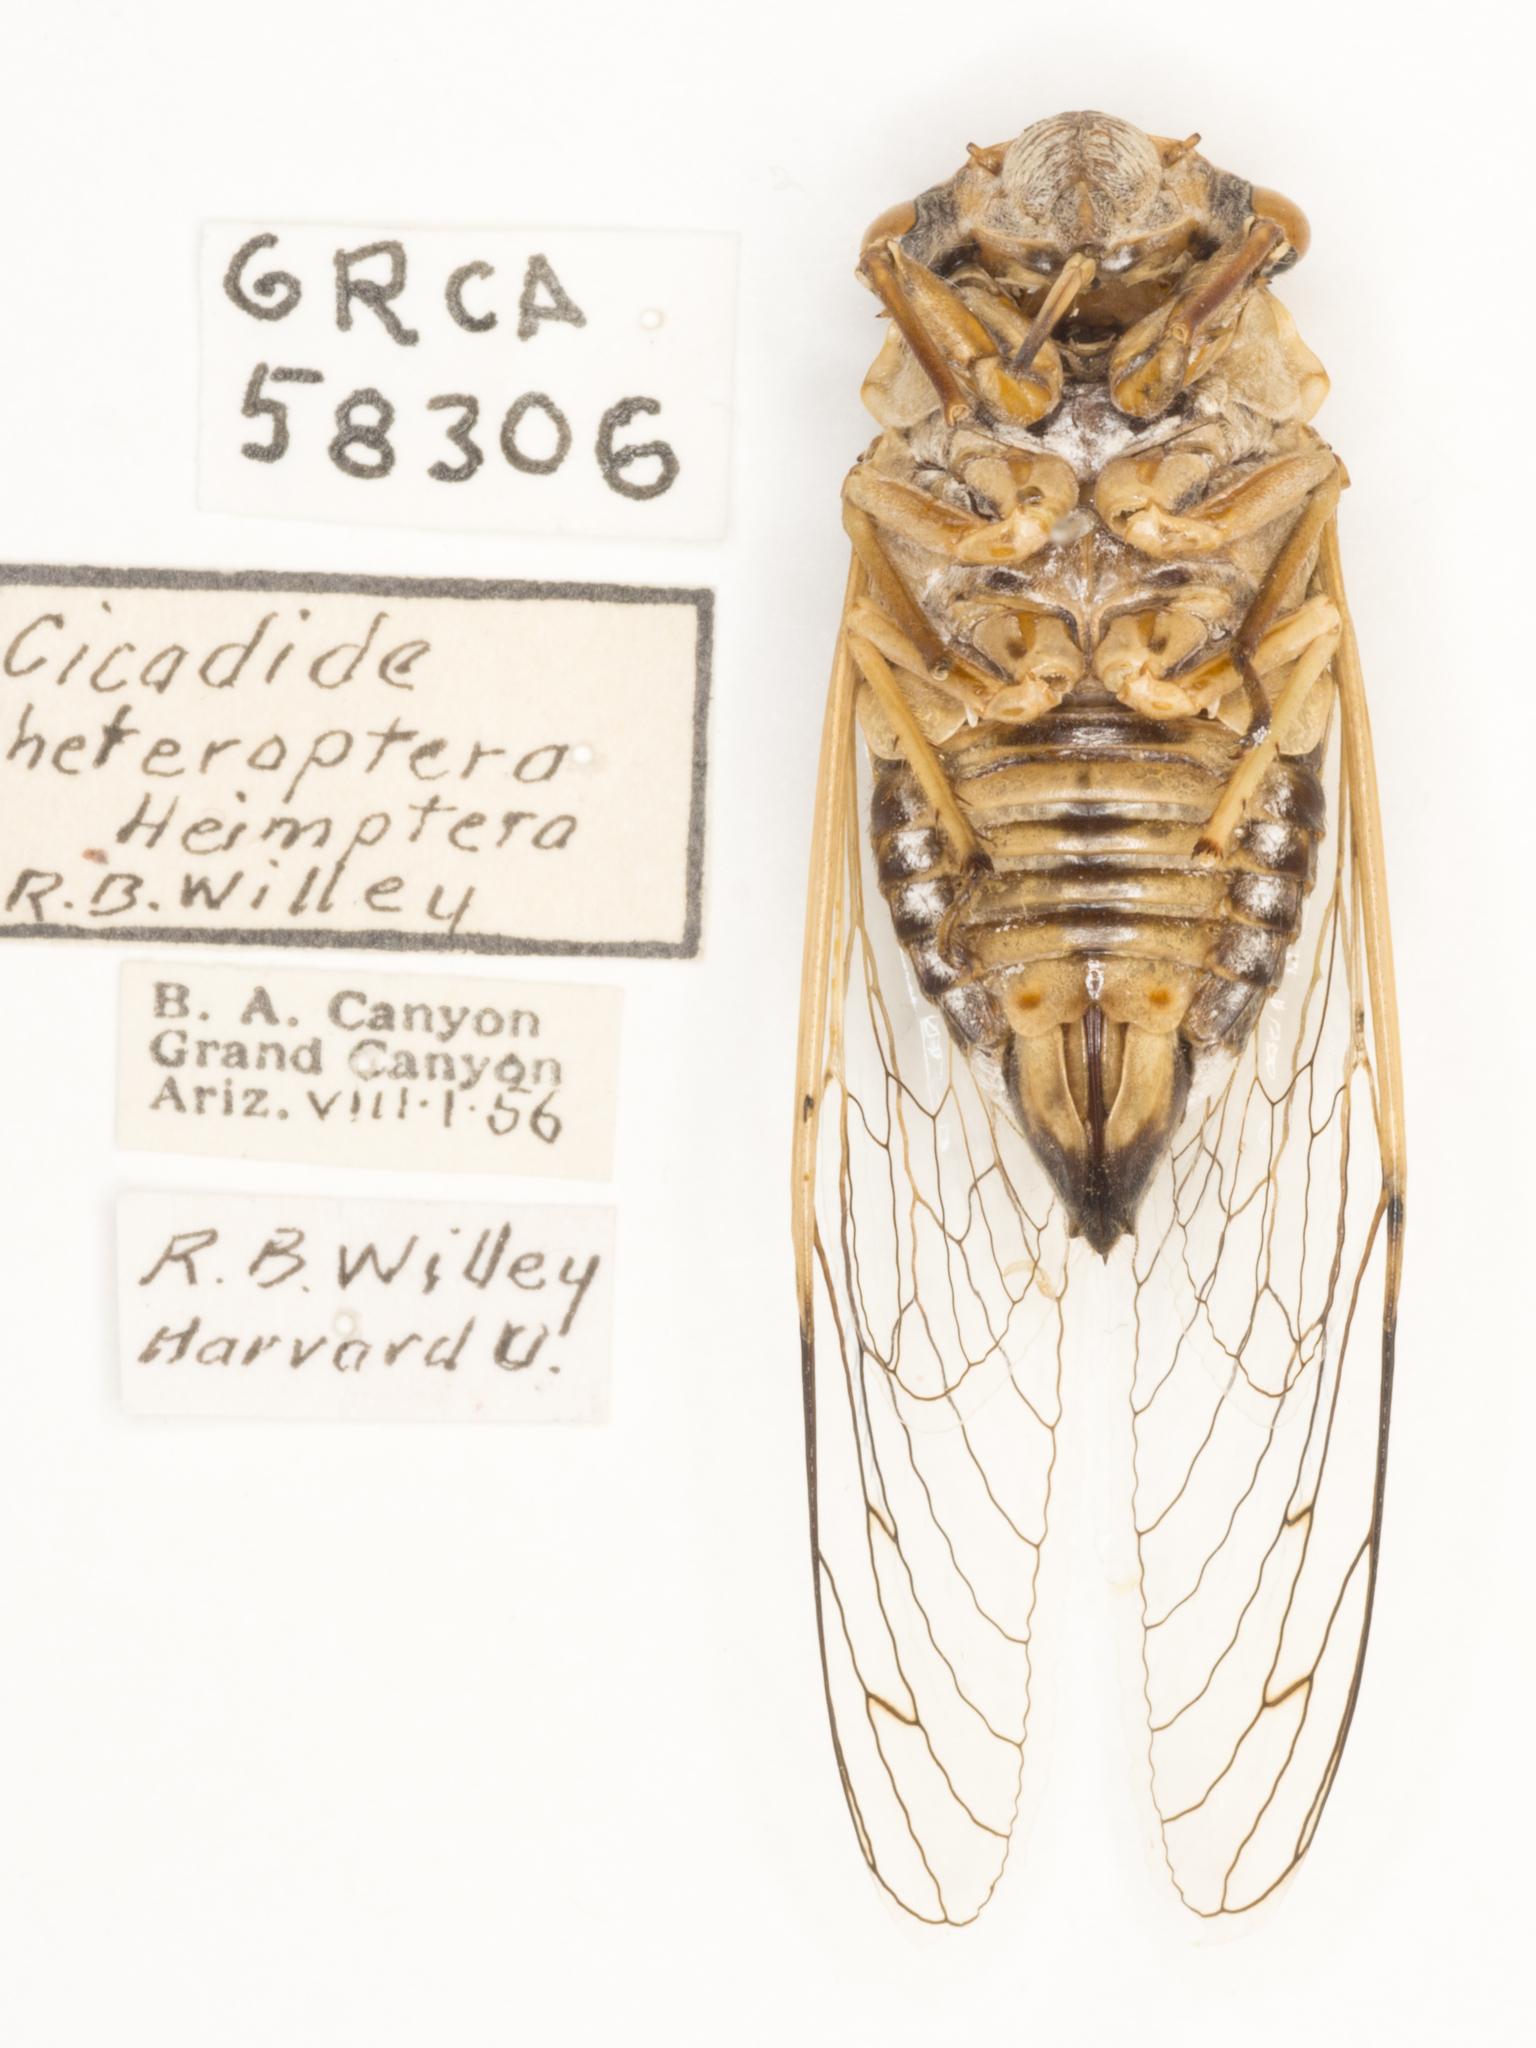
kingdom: Animalia
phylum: Arthropoda
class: Insecta
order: Hemiptera
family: Cicadidae
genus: Diceroprocta
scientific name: Diceroprocta apache
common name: Desert cicada
